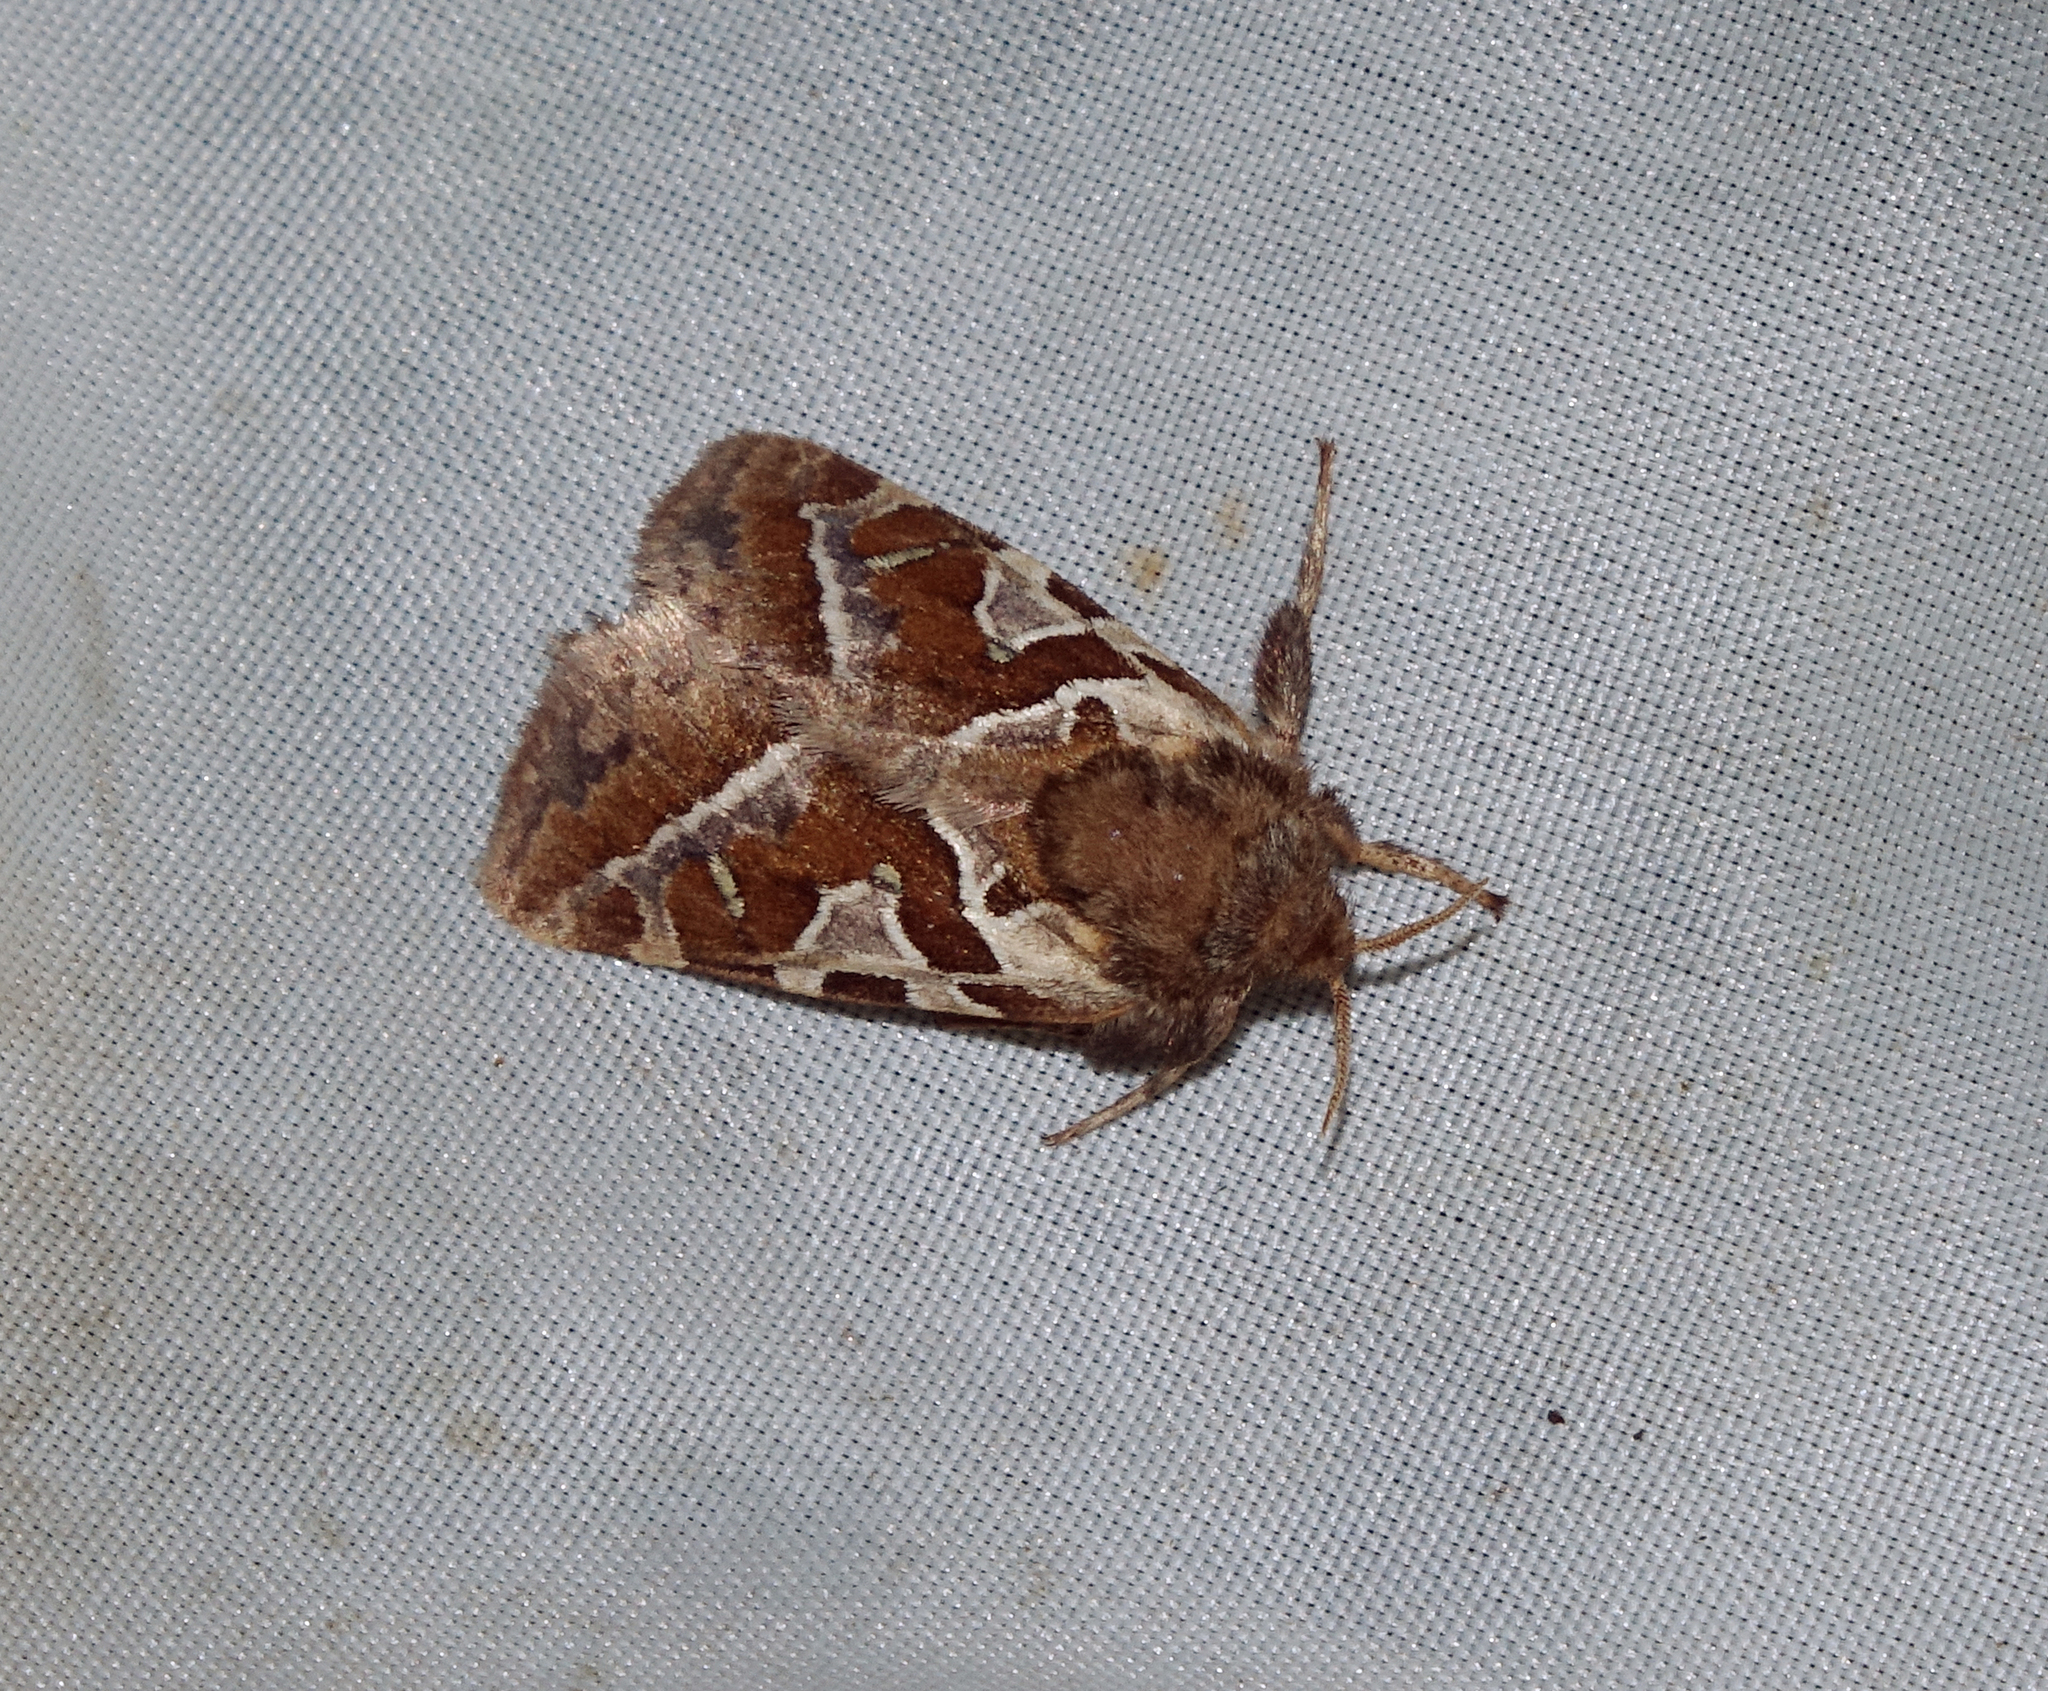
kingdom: Animalia
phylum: Arthropoda
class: Insecta
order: Lepidoptera
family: Hepialidae
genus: Triodia
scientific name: Triodia laetus
